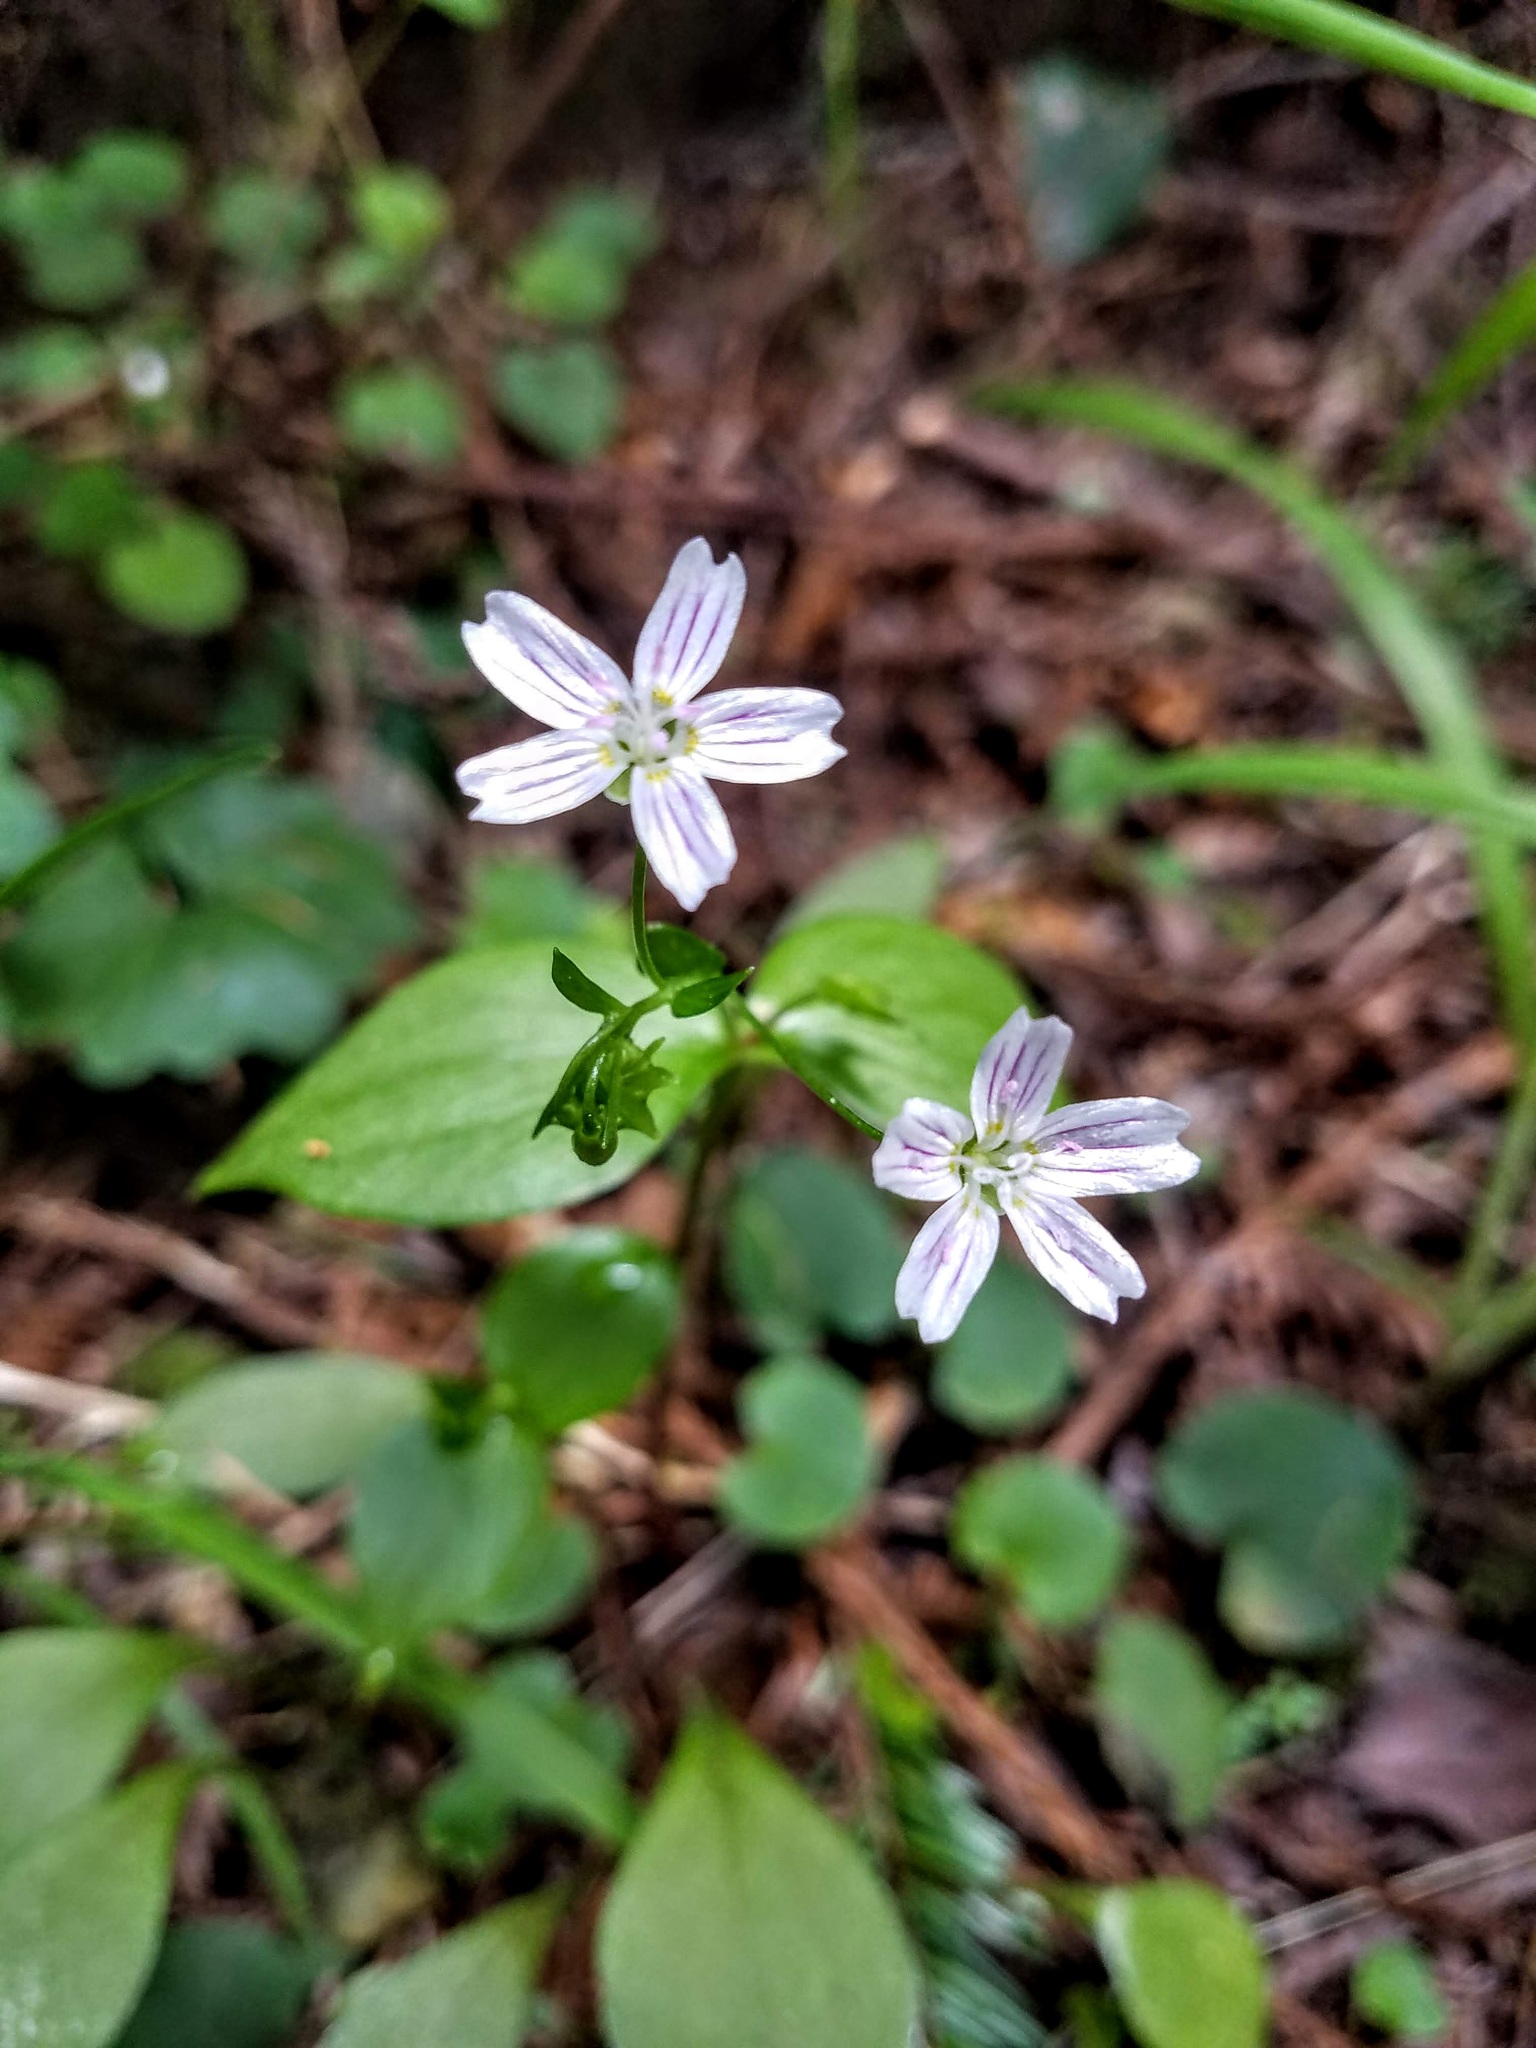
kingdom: Plantae
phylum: Tracheophyta
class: Magnoliopsida
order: Caryophyllales
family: Montiaceae
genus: Claytonia
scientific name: Claytonia sibirica
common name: Pink purslane
